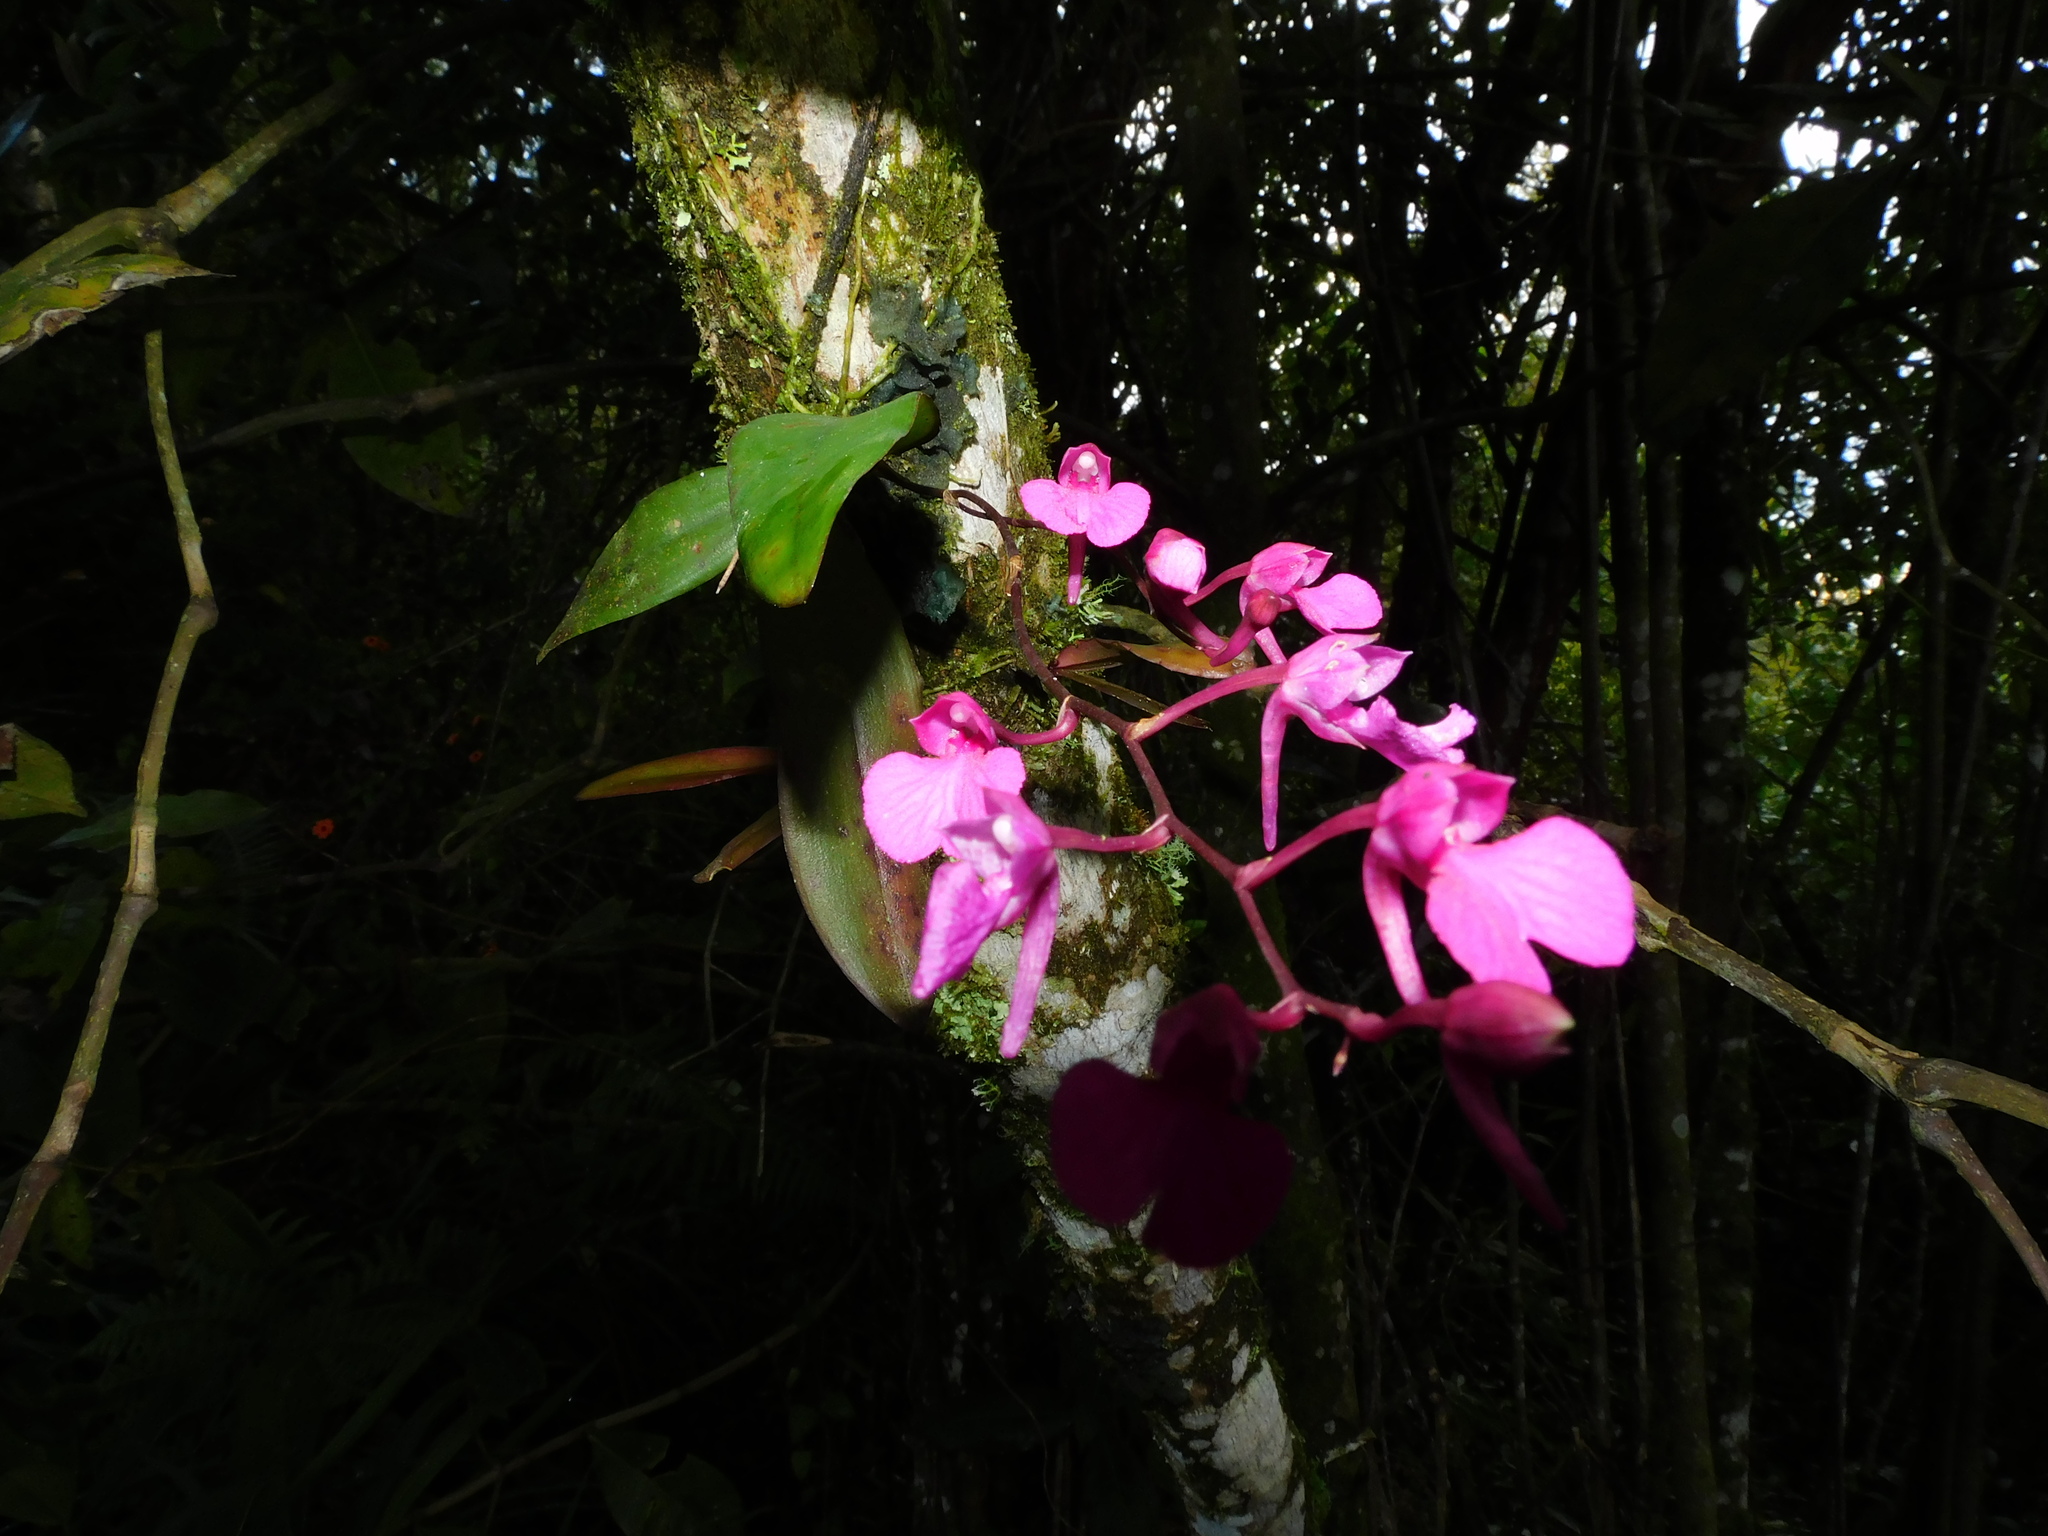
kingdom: Plantae
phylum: Tracheophyta
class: Liliopsida
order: Asparagales
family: Orchidaceae
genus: Comparettia
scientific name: Comparettia falcata
